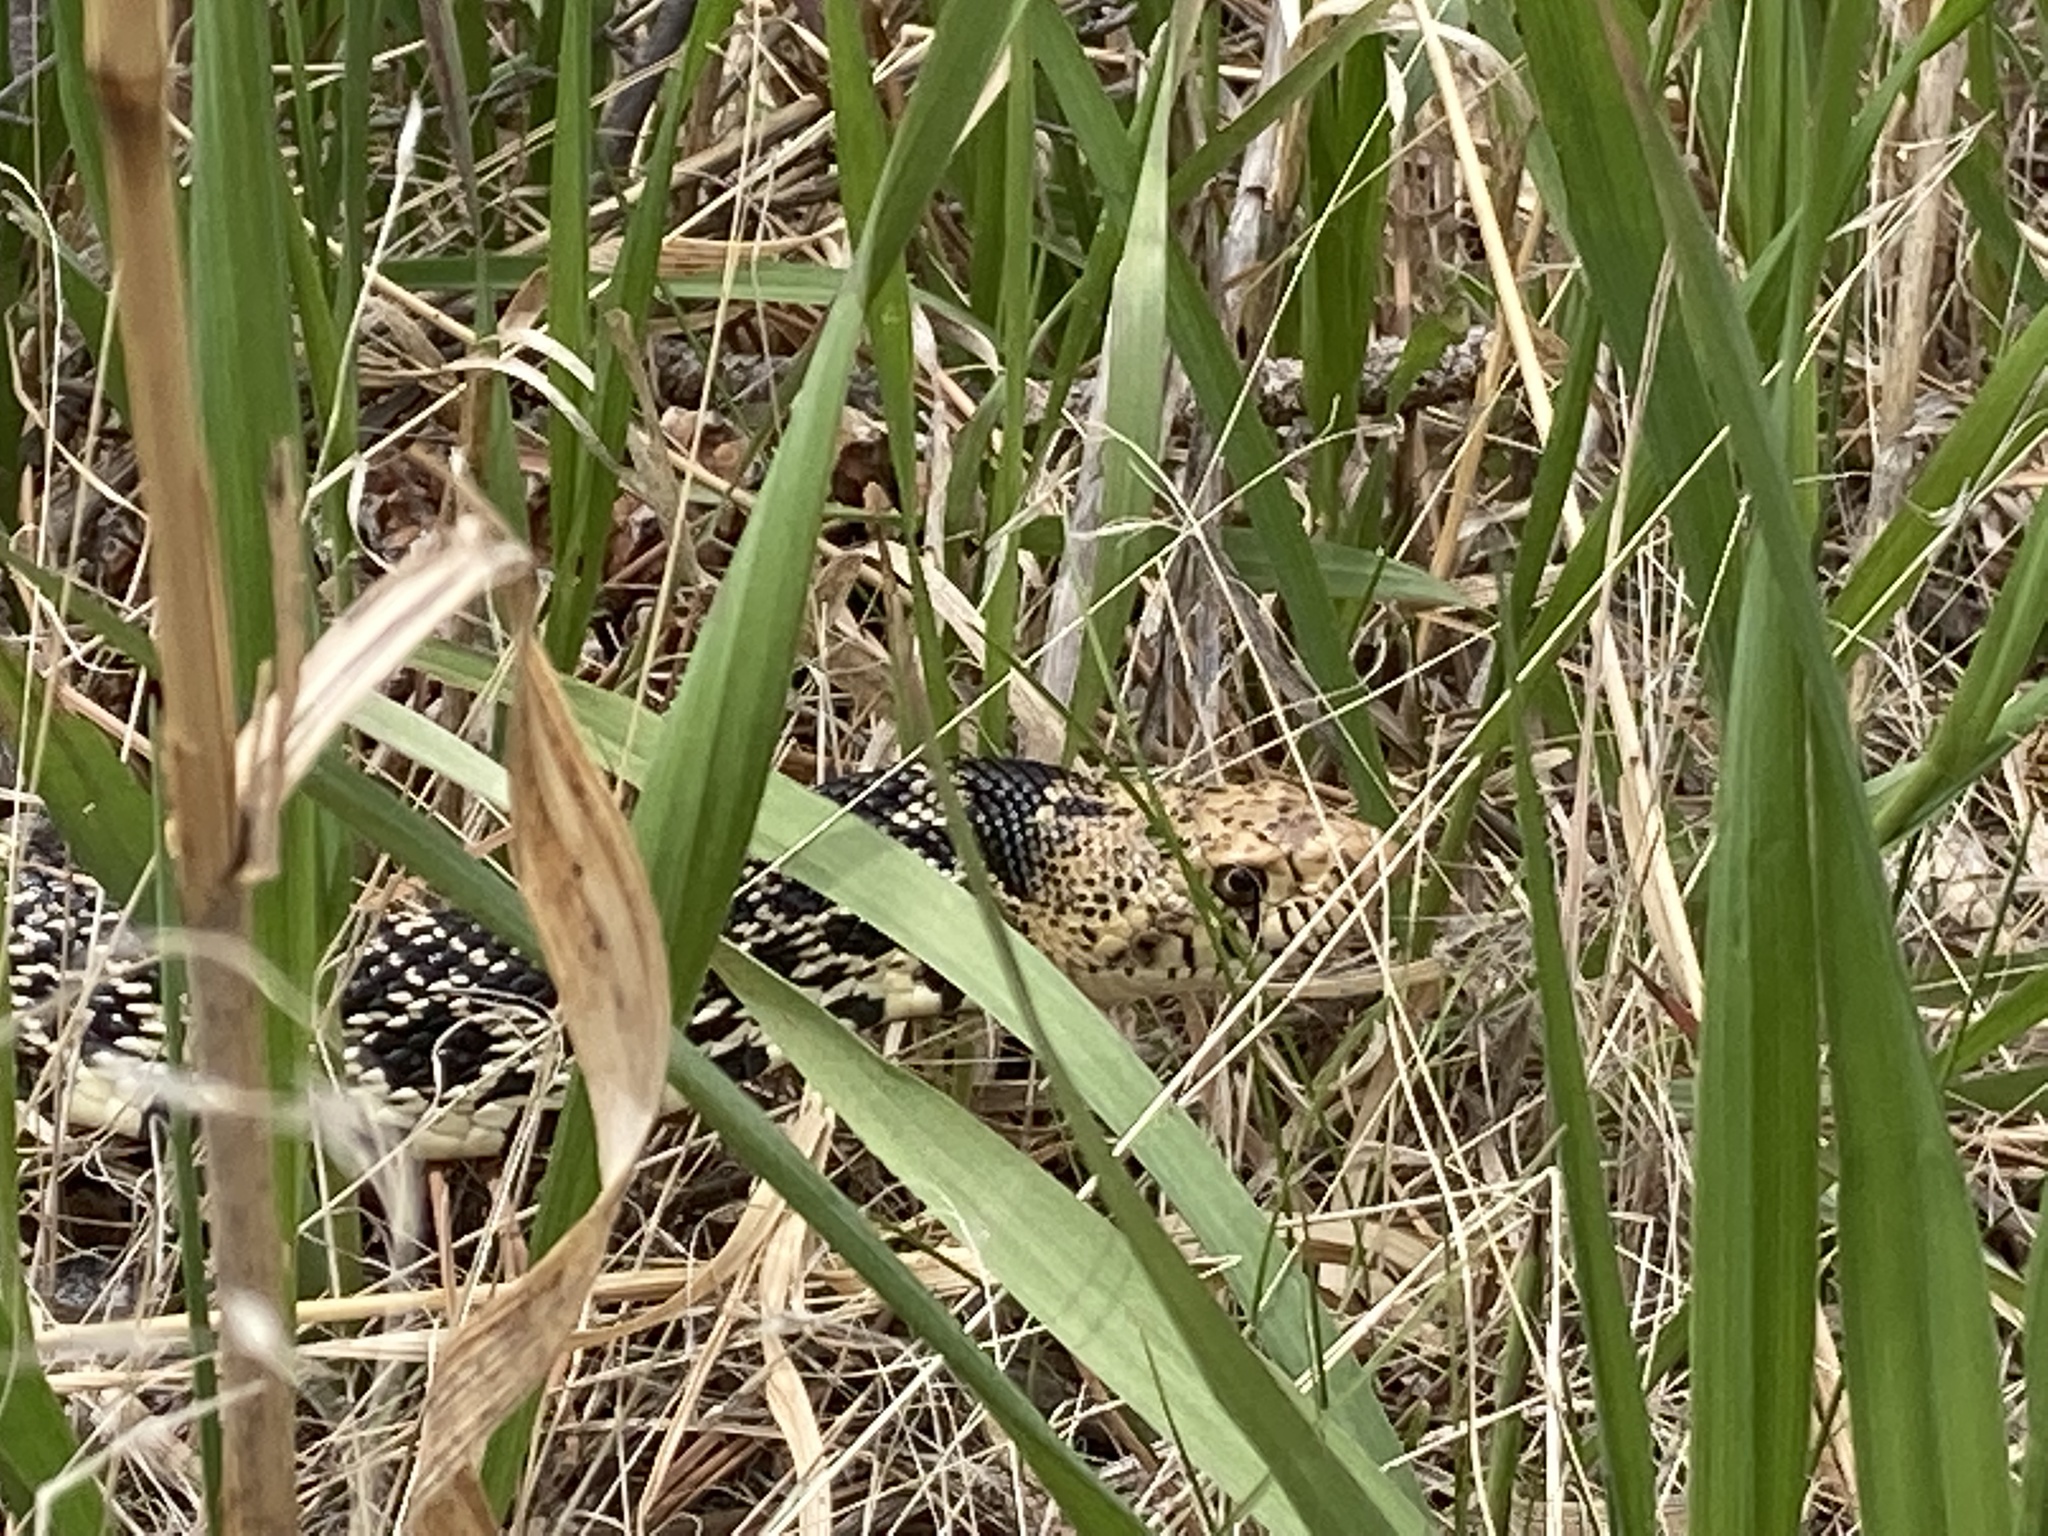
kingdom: Animalia
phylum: Chordata
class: Squamata
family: Colubridae
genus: Pituophis
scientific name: Pituophis catenifer
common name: Gopher snake
